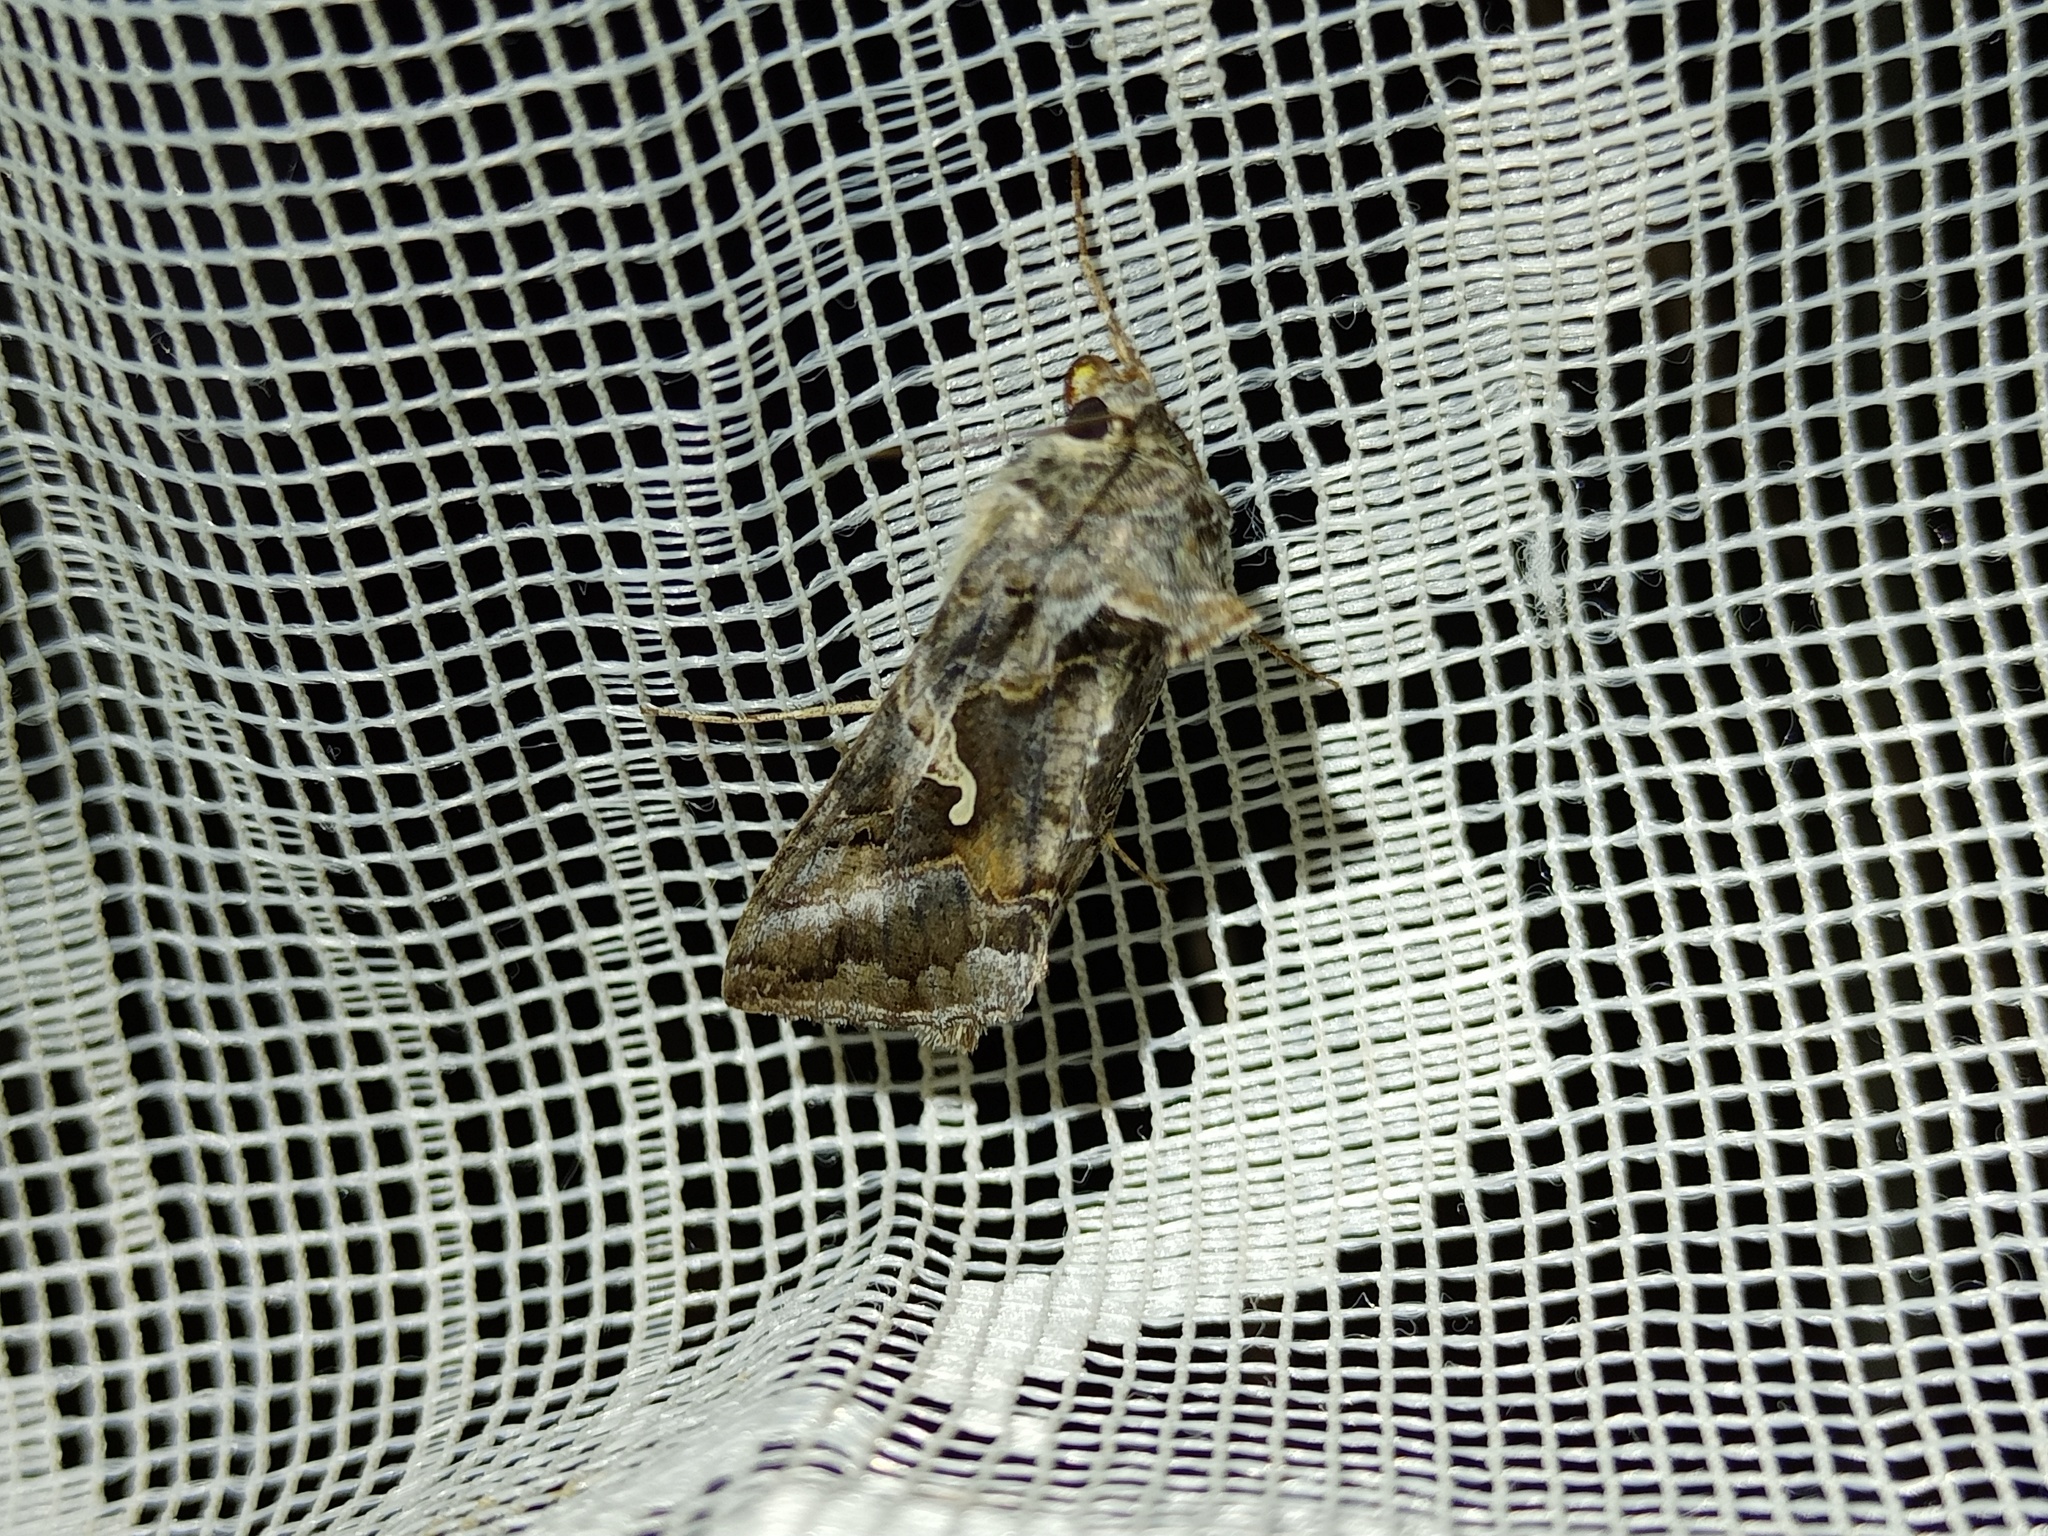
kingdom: Animalia
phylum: Arthropoda
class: Insecta
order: Lepidoptera
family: Noctuidae
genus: Autographa
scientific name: Autographa gamma
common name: Silver y
